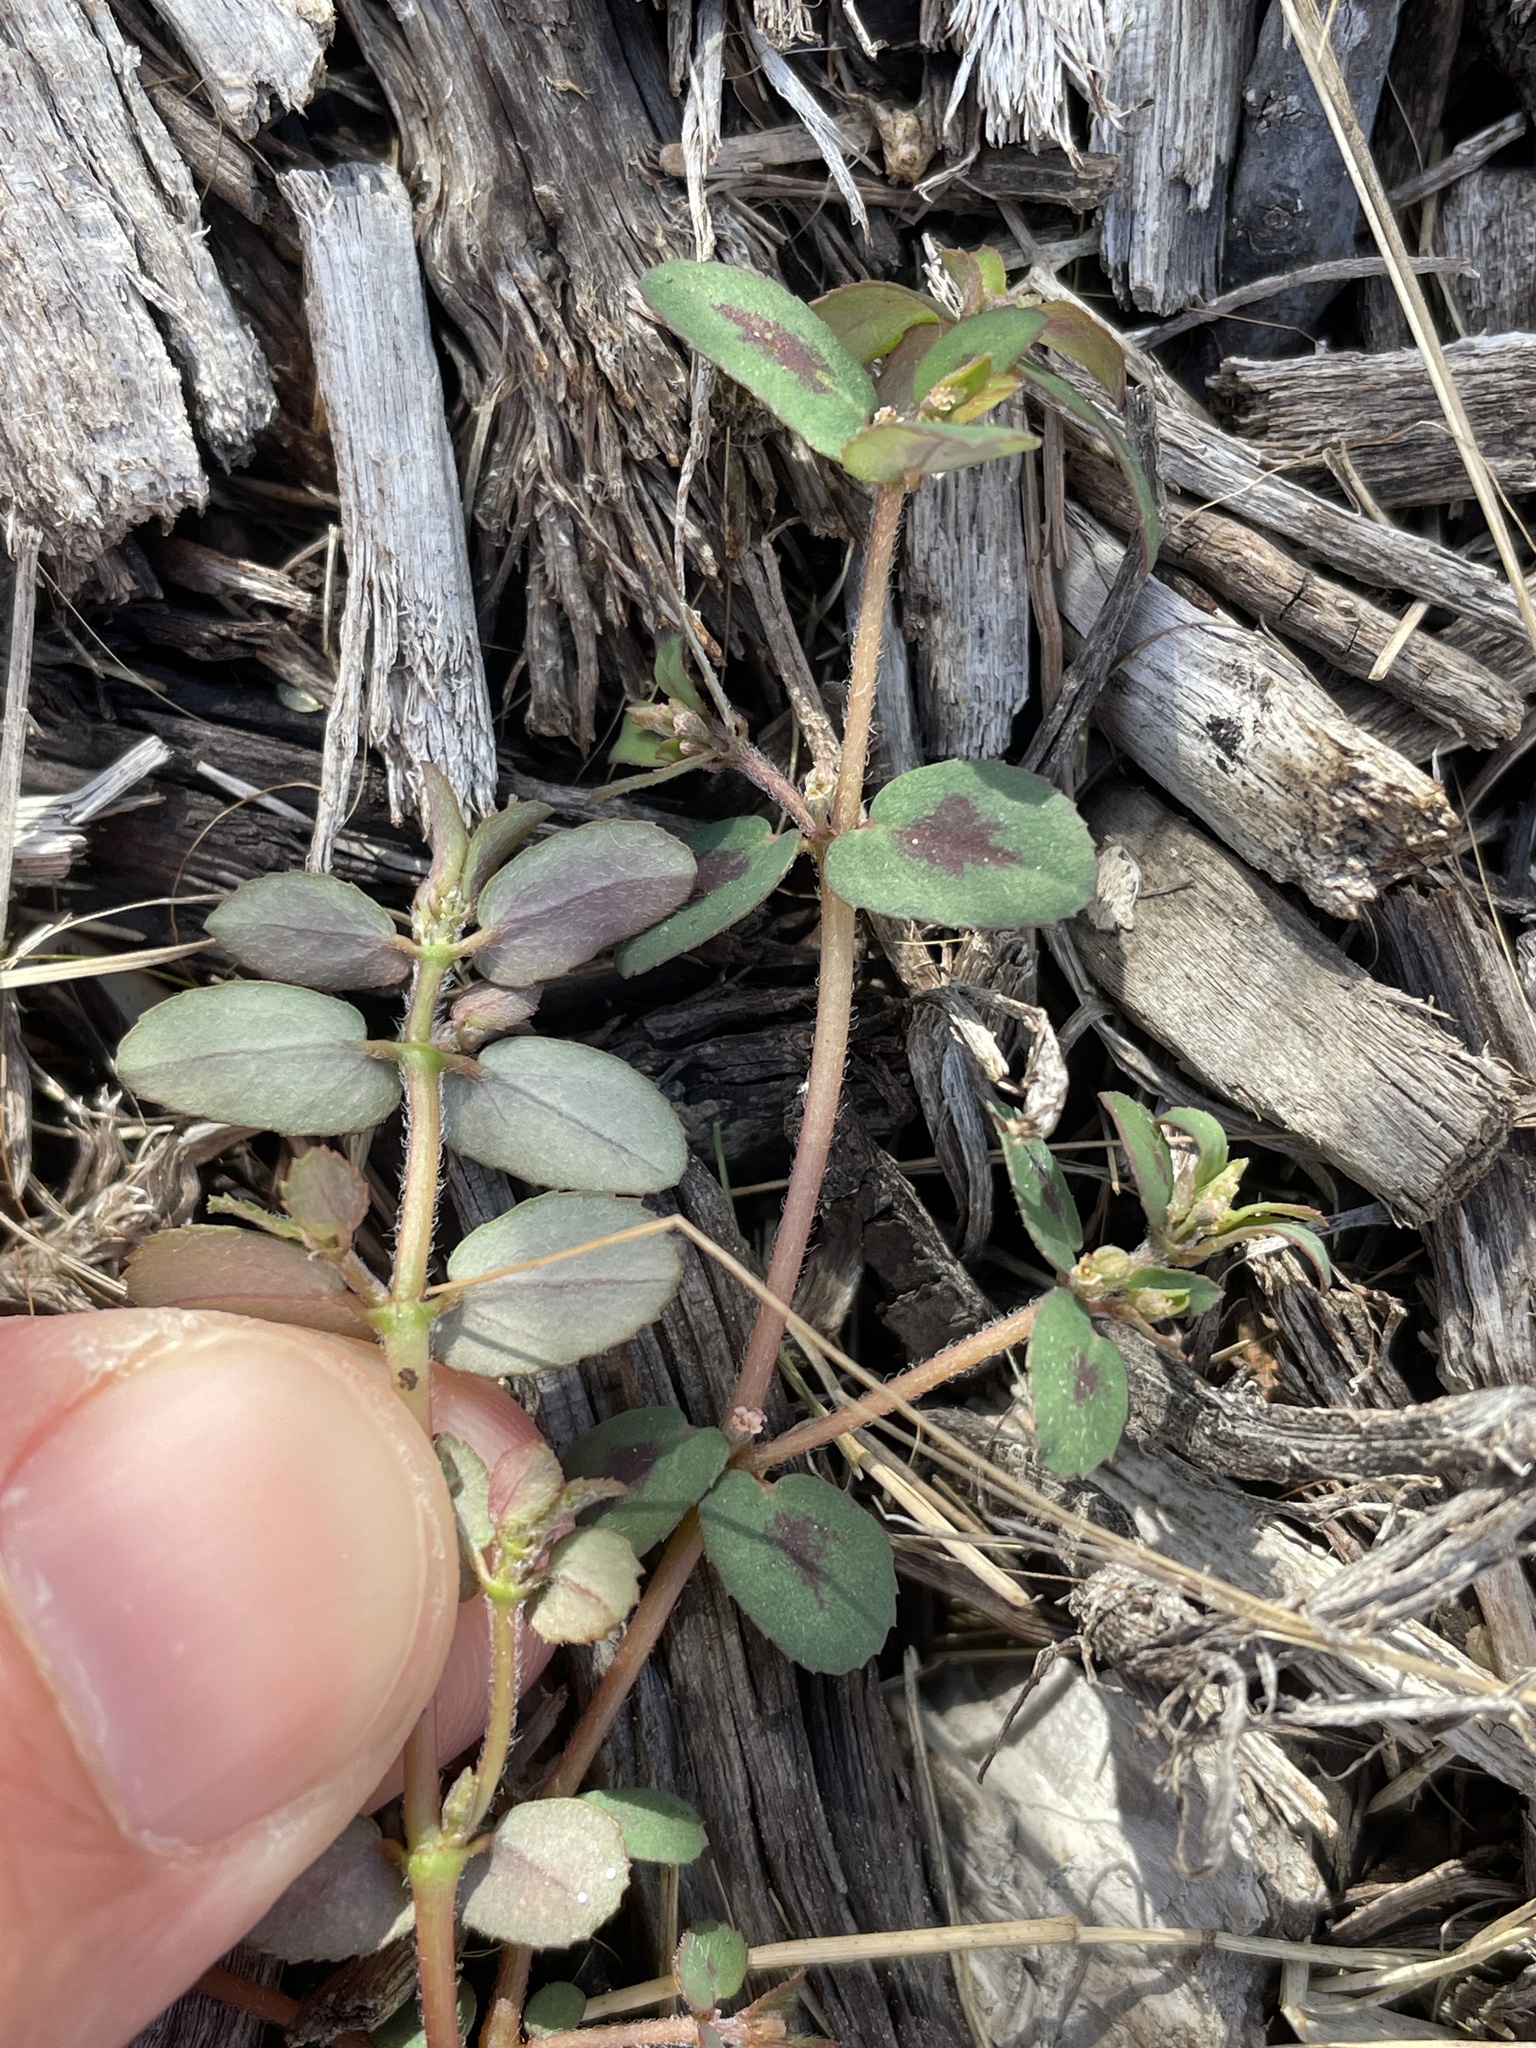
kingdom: Plantae
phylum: Tracheophyta
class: Magnoliopsida
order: Malpighiales
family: Euphorbiaceae
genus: Euphorbia
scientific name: Euphorbia maculata
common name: Spotted spurge
